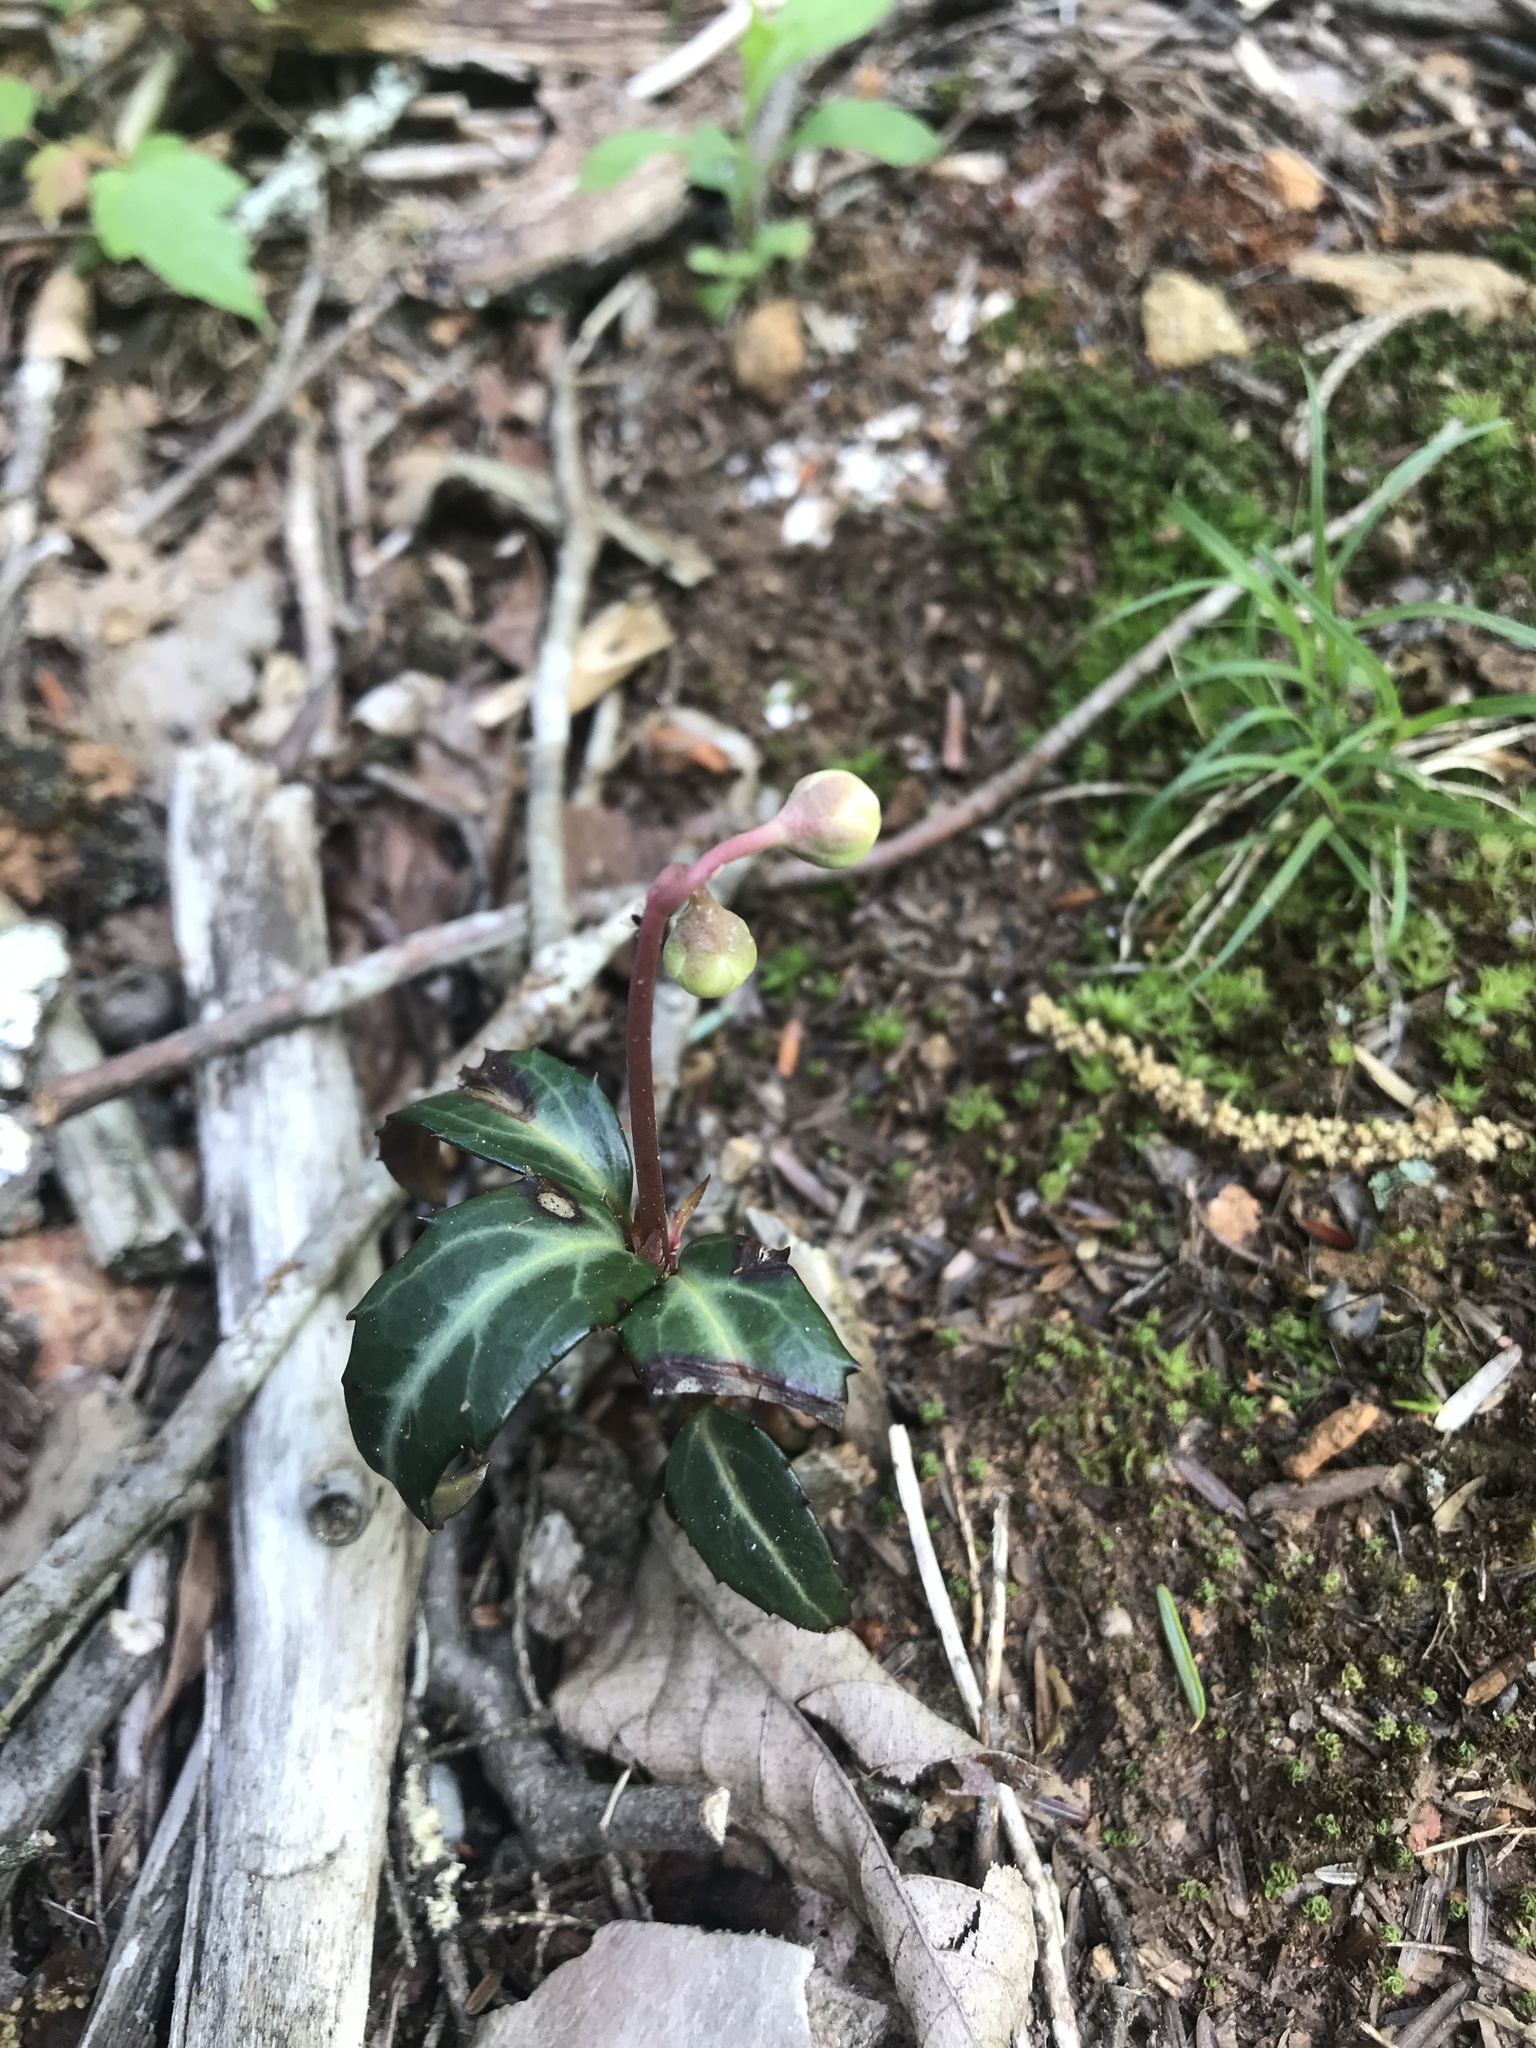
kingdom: Plantae
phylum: Tracheophyta
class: Magnoliopsida
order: Ericales
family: Ericaceae
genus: Chimaphila
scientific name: Chimaphila maculata
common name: Spotted pipsissewa
